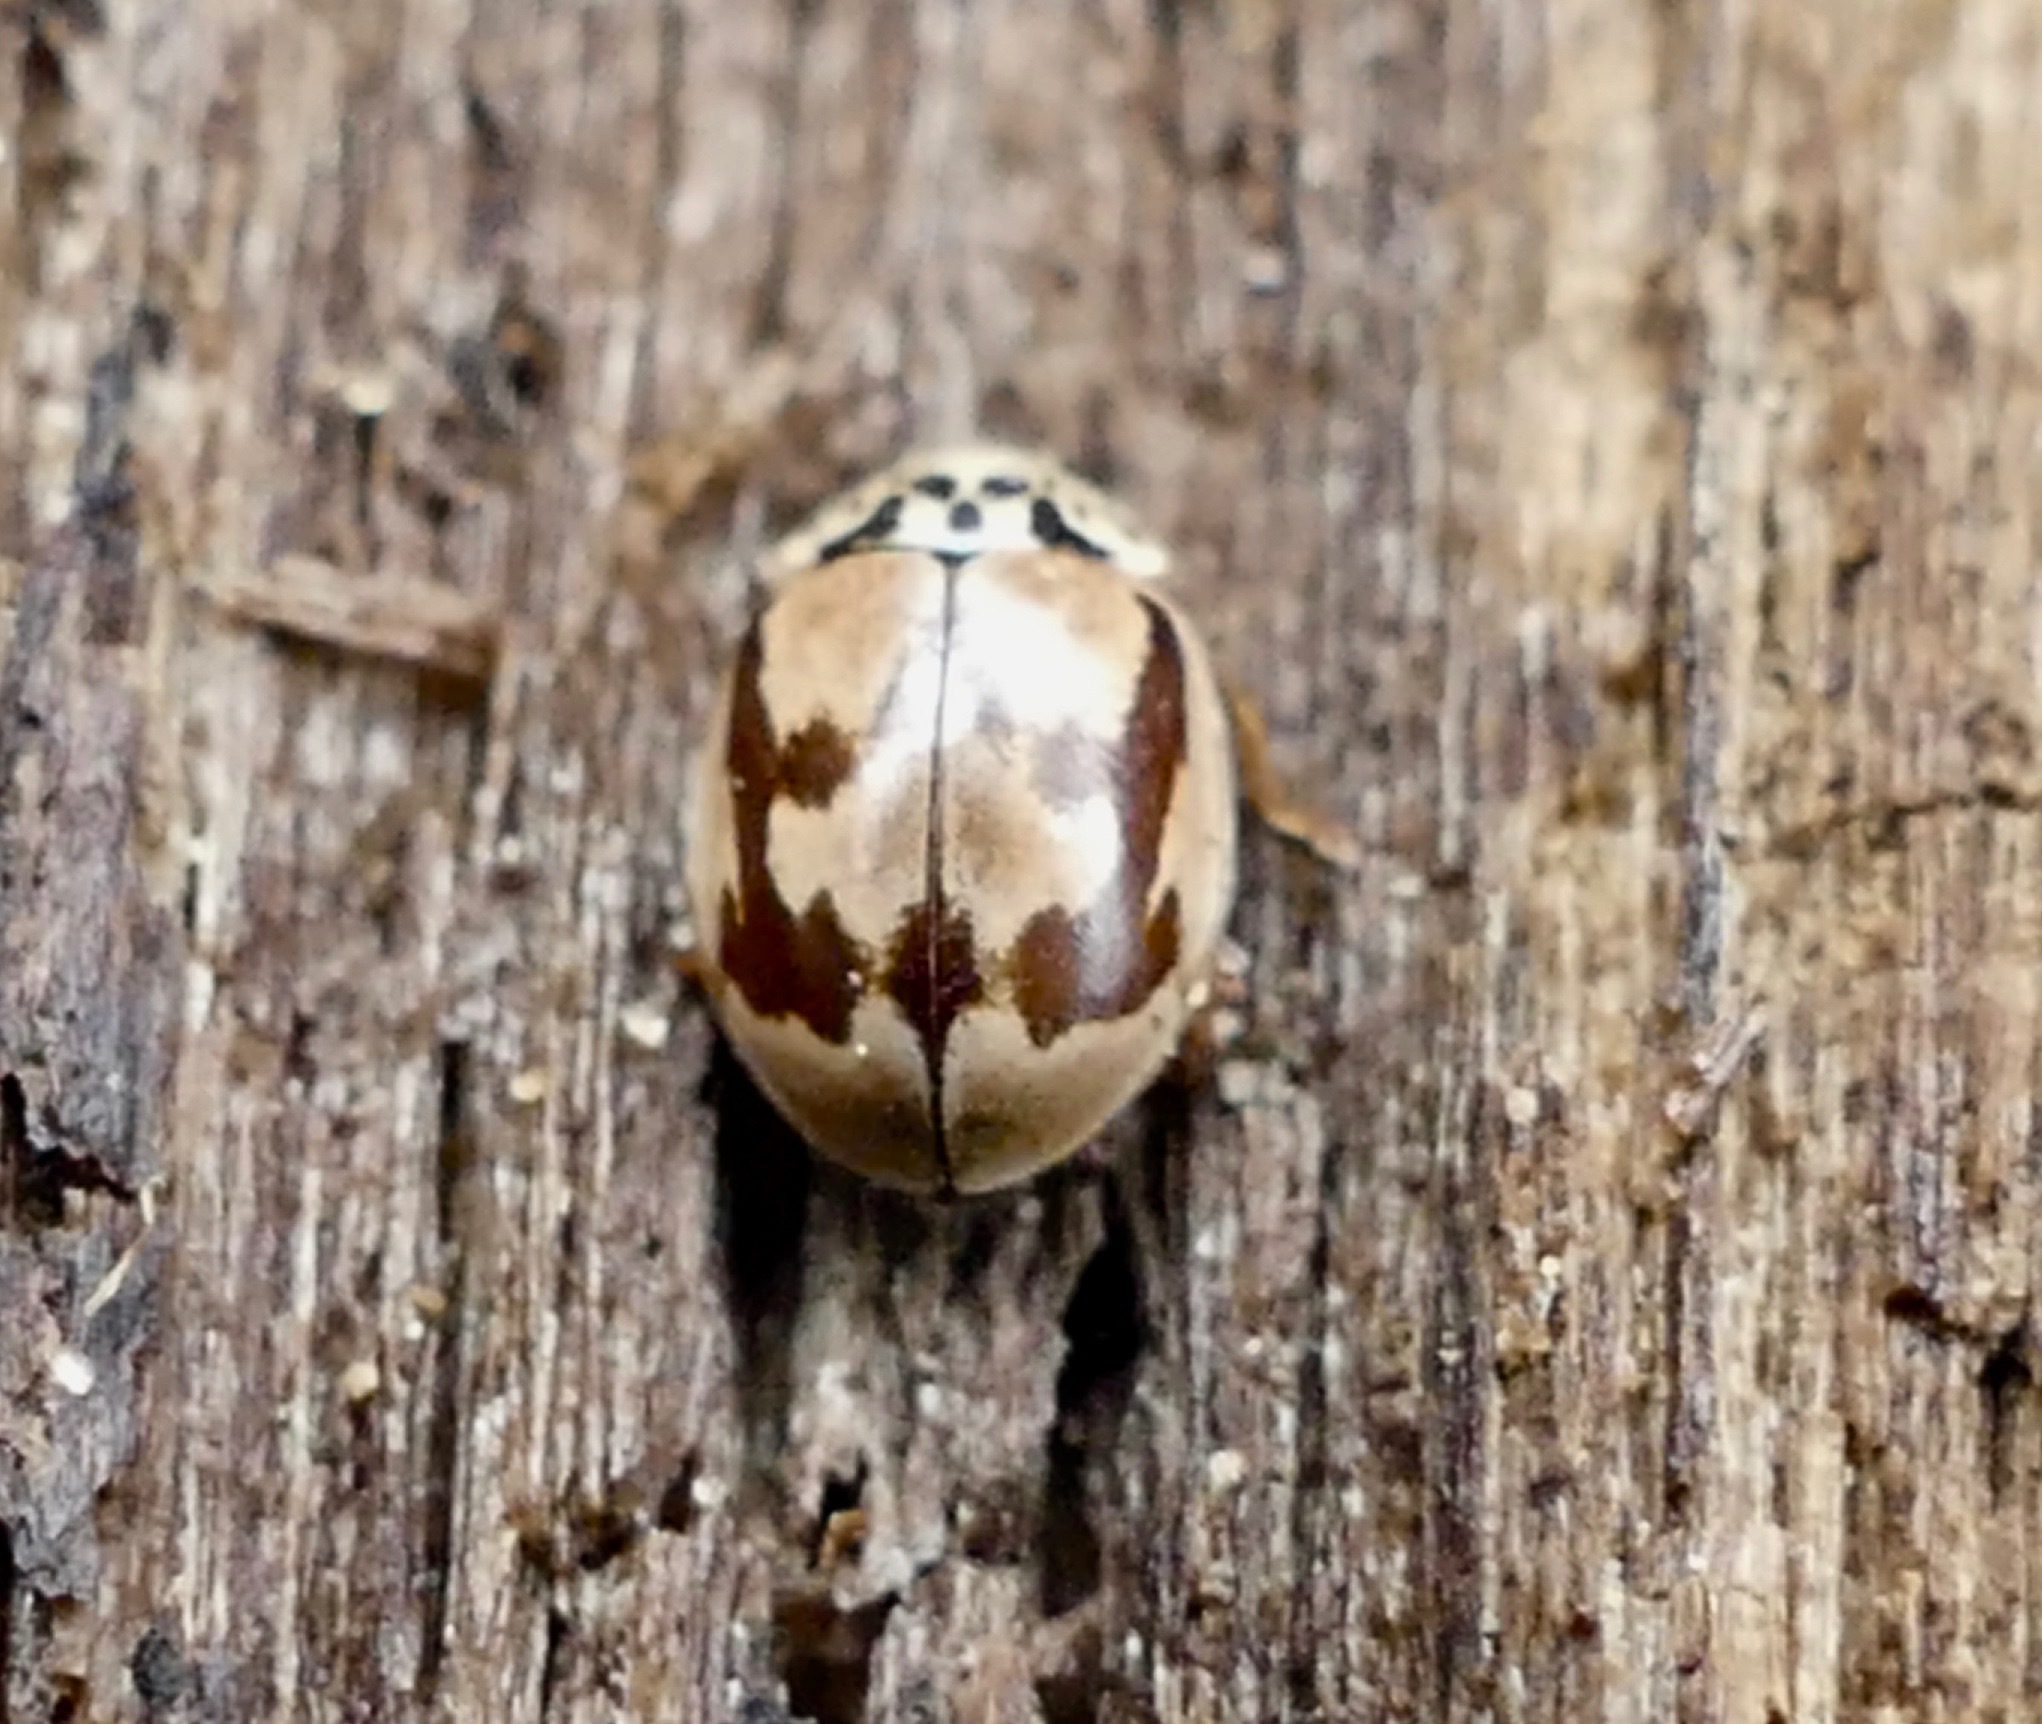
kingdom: Animalia
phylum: Arthropoda
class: Insecta
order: Coleoptera
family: Coccinellidae
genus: Mulsantina
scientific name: Mulsantina picta
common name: Painted ladybird
